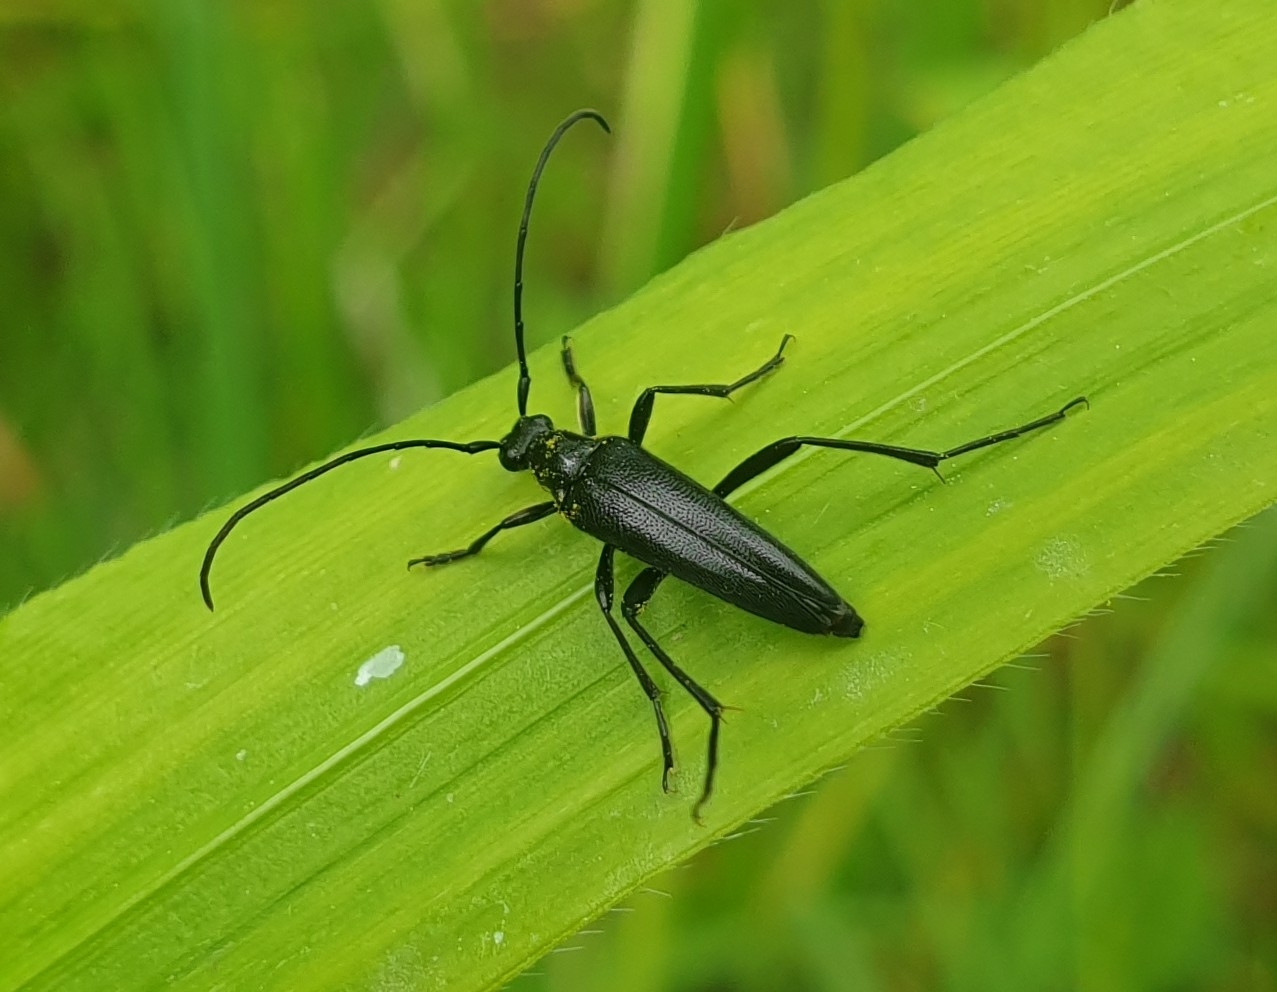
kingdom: Animalia
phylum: Arthropoda
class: Insecta
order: Coleoptera
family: Cerambycidae
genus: Stenurella
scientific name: Stenurella nigra
